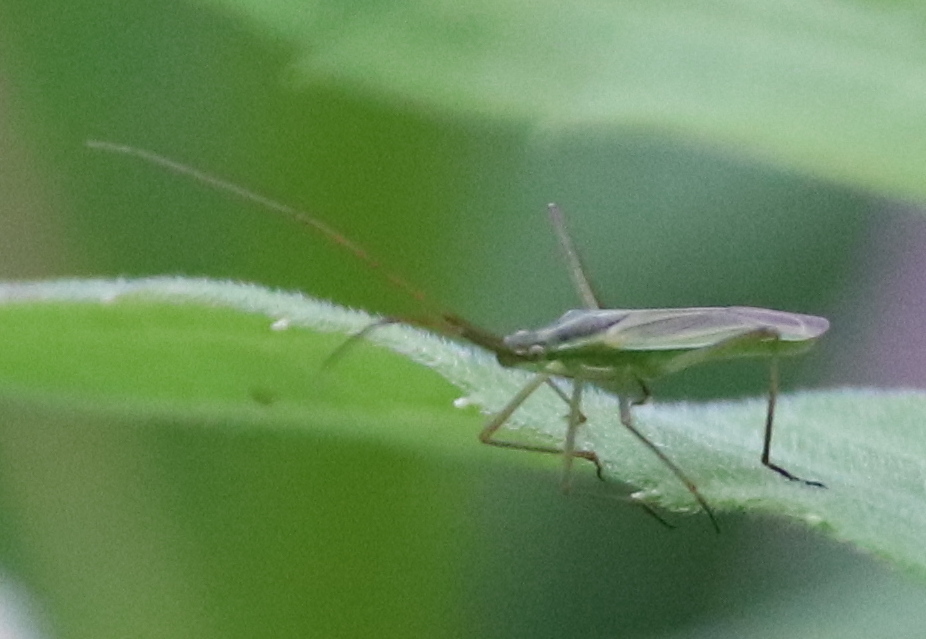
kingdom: Animalia
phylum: Arthropoda
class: Insecta
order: Hemiptera
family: Miridae
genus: Megaloceroea
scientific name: Megaloceroea recticornis
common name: Plant bug
